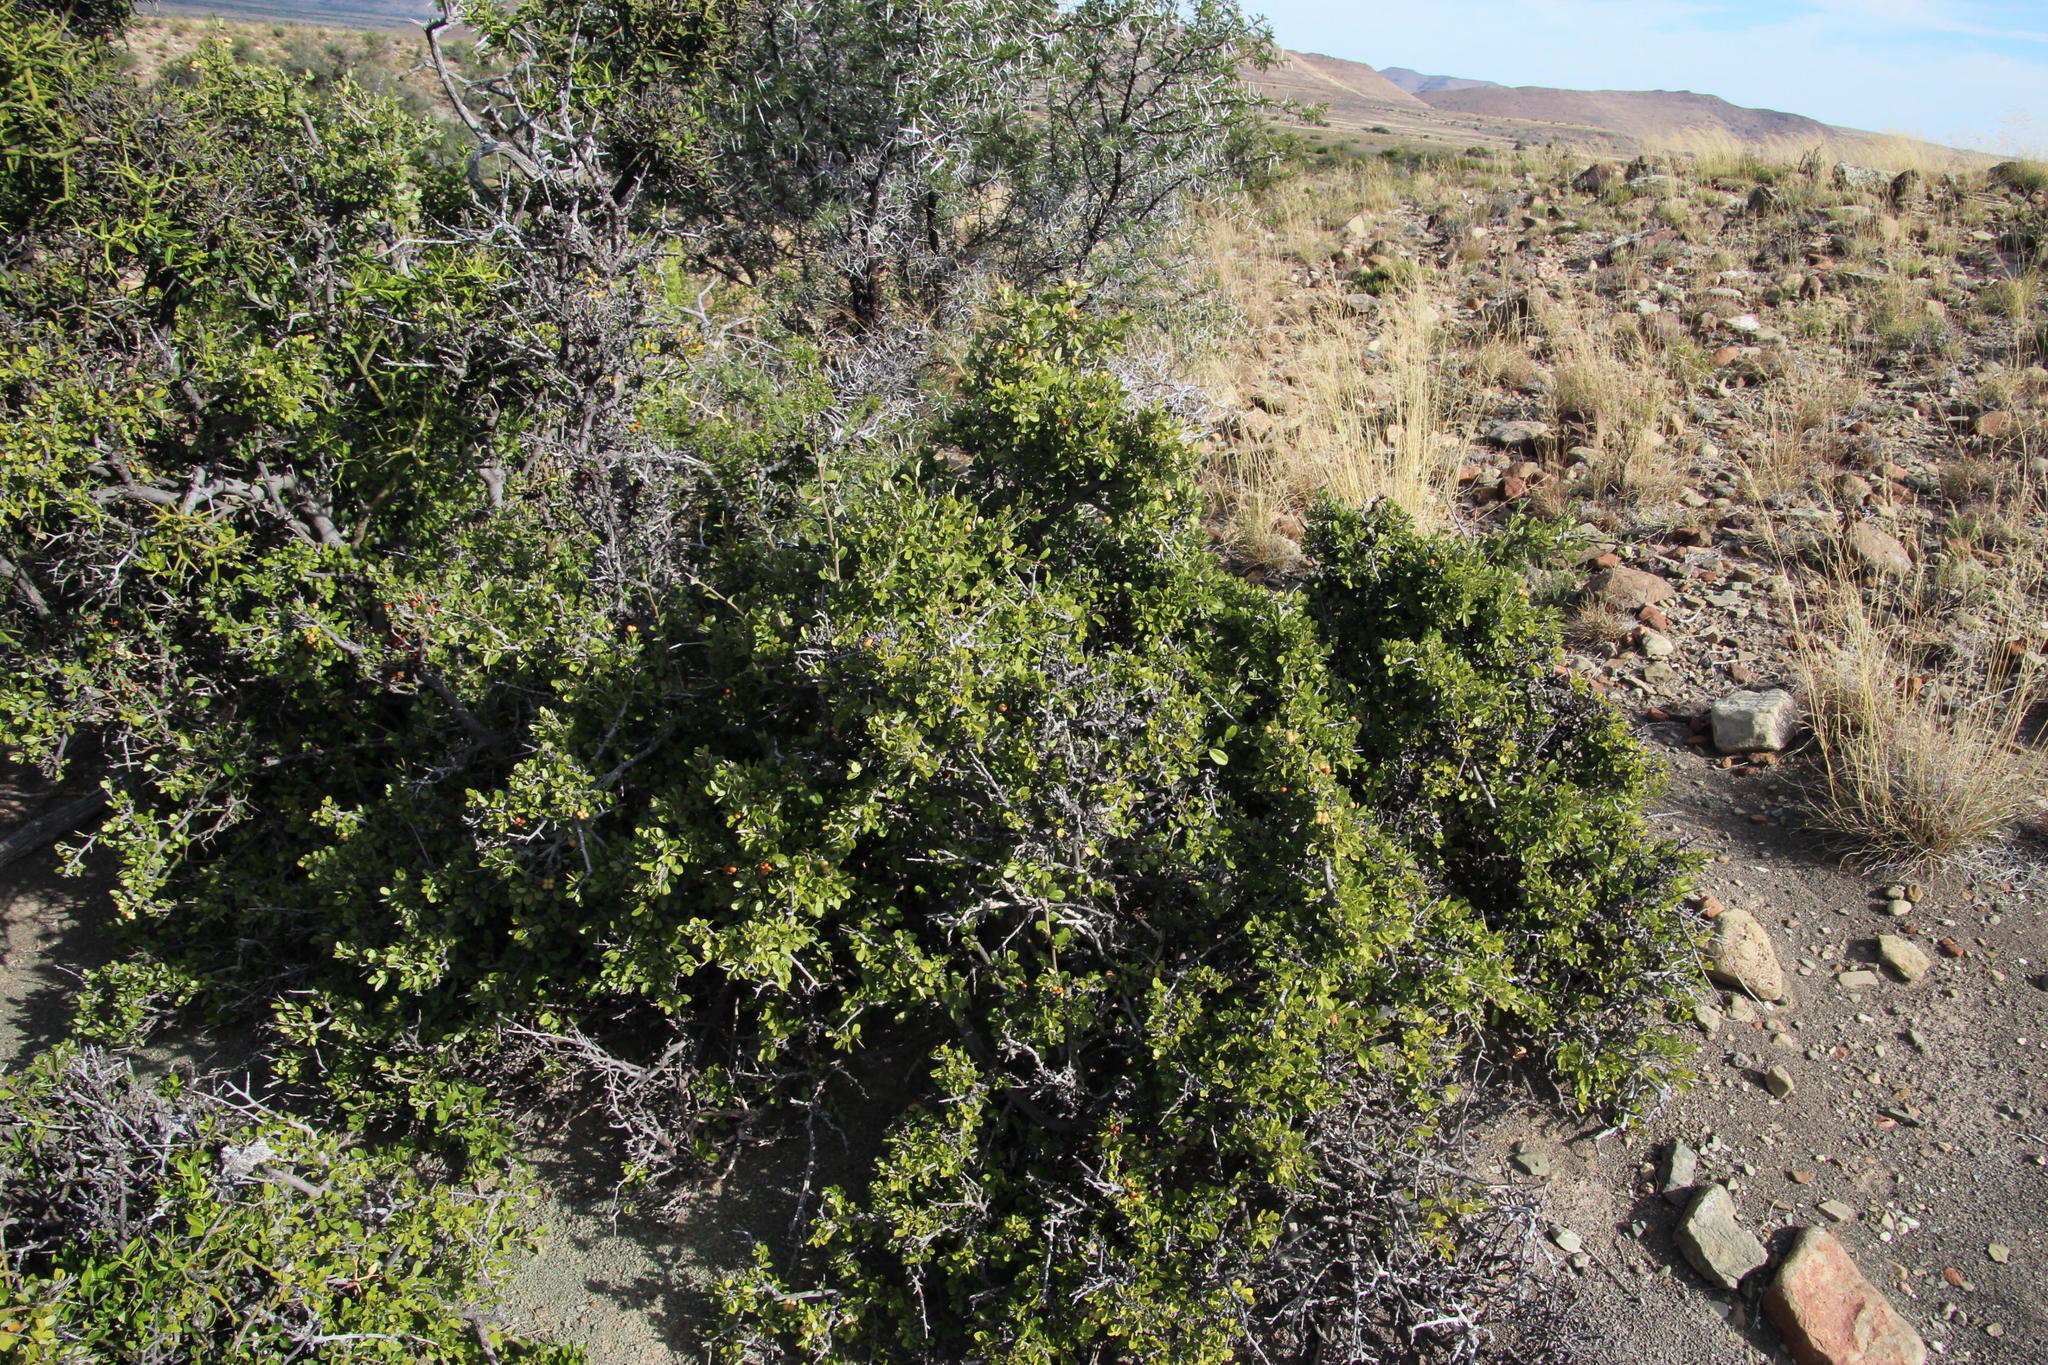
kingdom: Plantae
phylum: Tracheophyta
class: Magnoliopsida
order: Malvales
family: Malvaceae
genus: Grewia
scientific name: Grewia robusta
